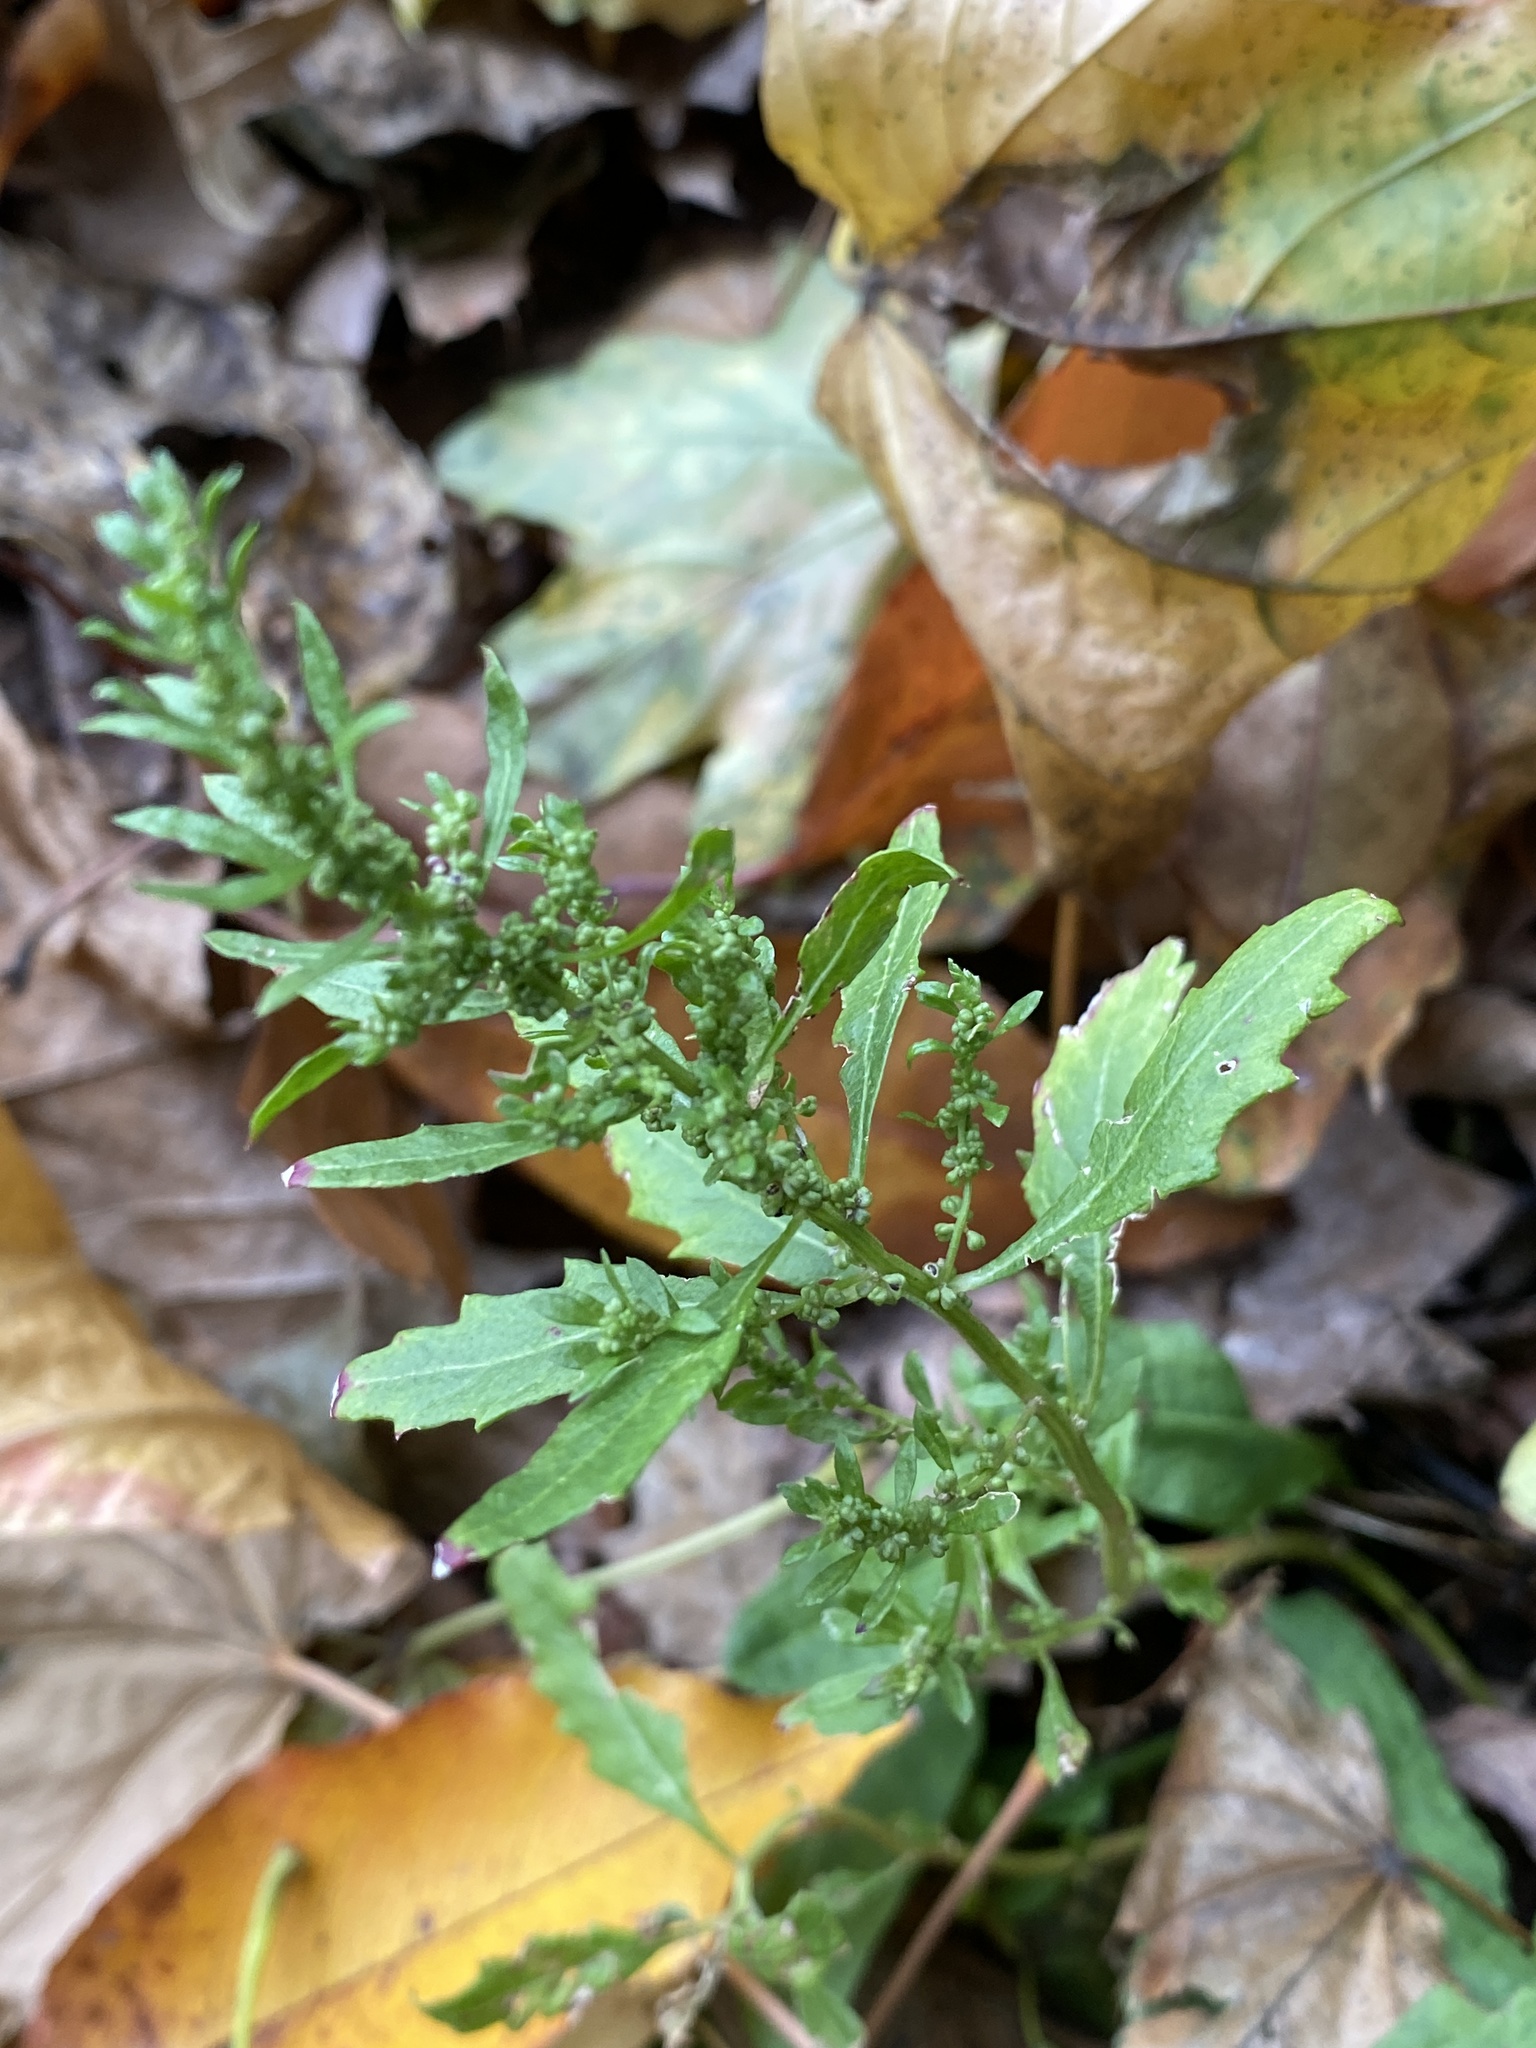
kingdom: Plantae
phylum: Tracheophyta
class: Magnoliopsida
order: Caryophyllales
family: Amaranthaceae
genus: Dysphania
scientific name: Dysphania ambrosioides
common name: Wormseed
